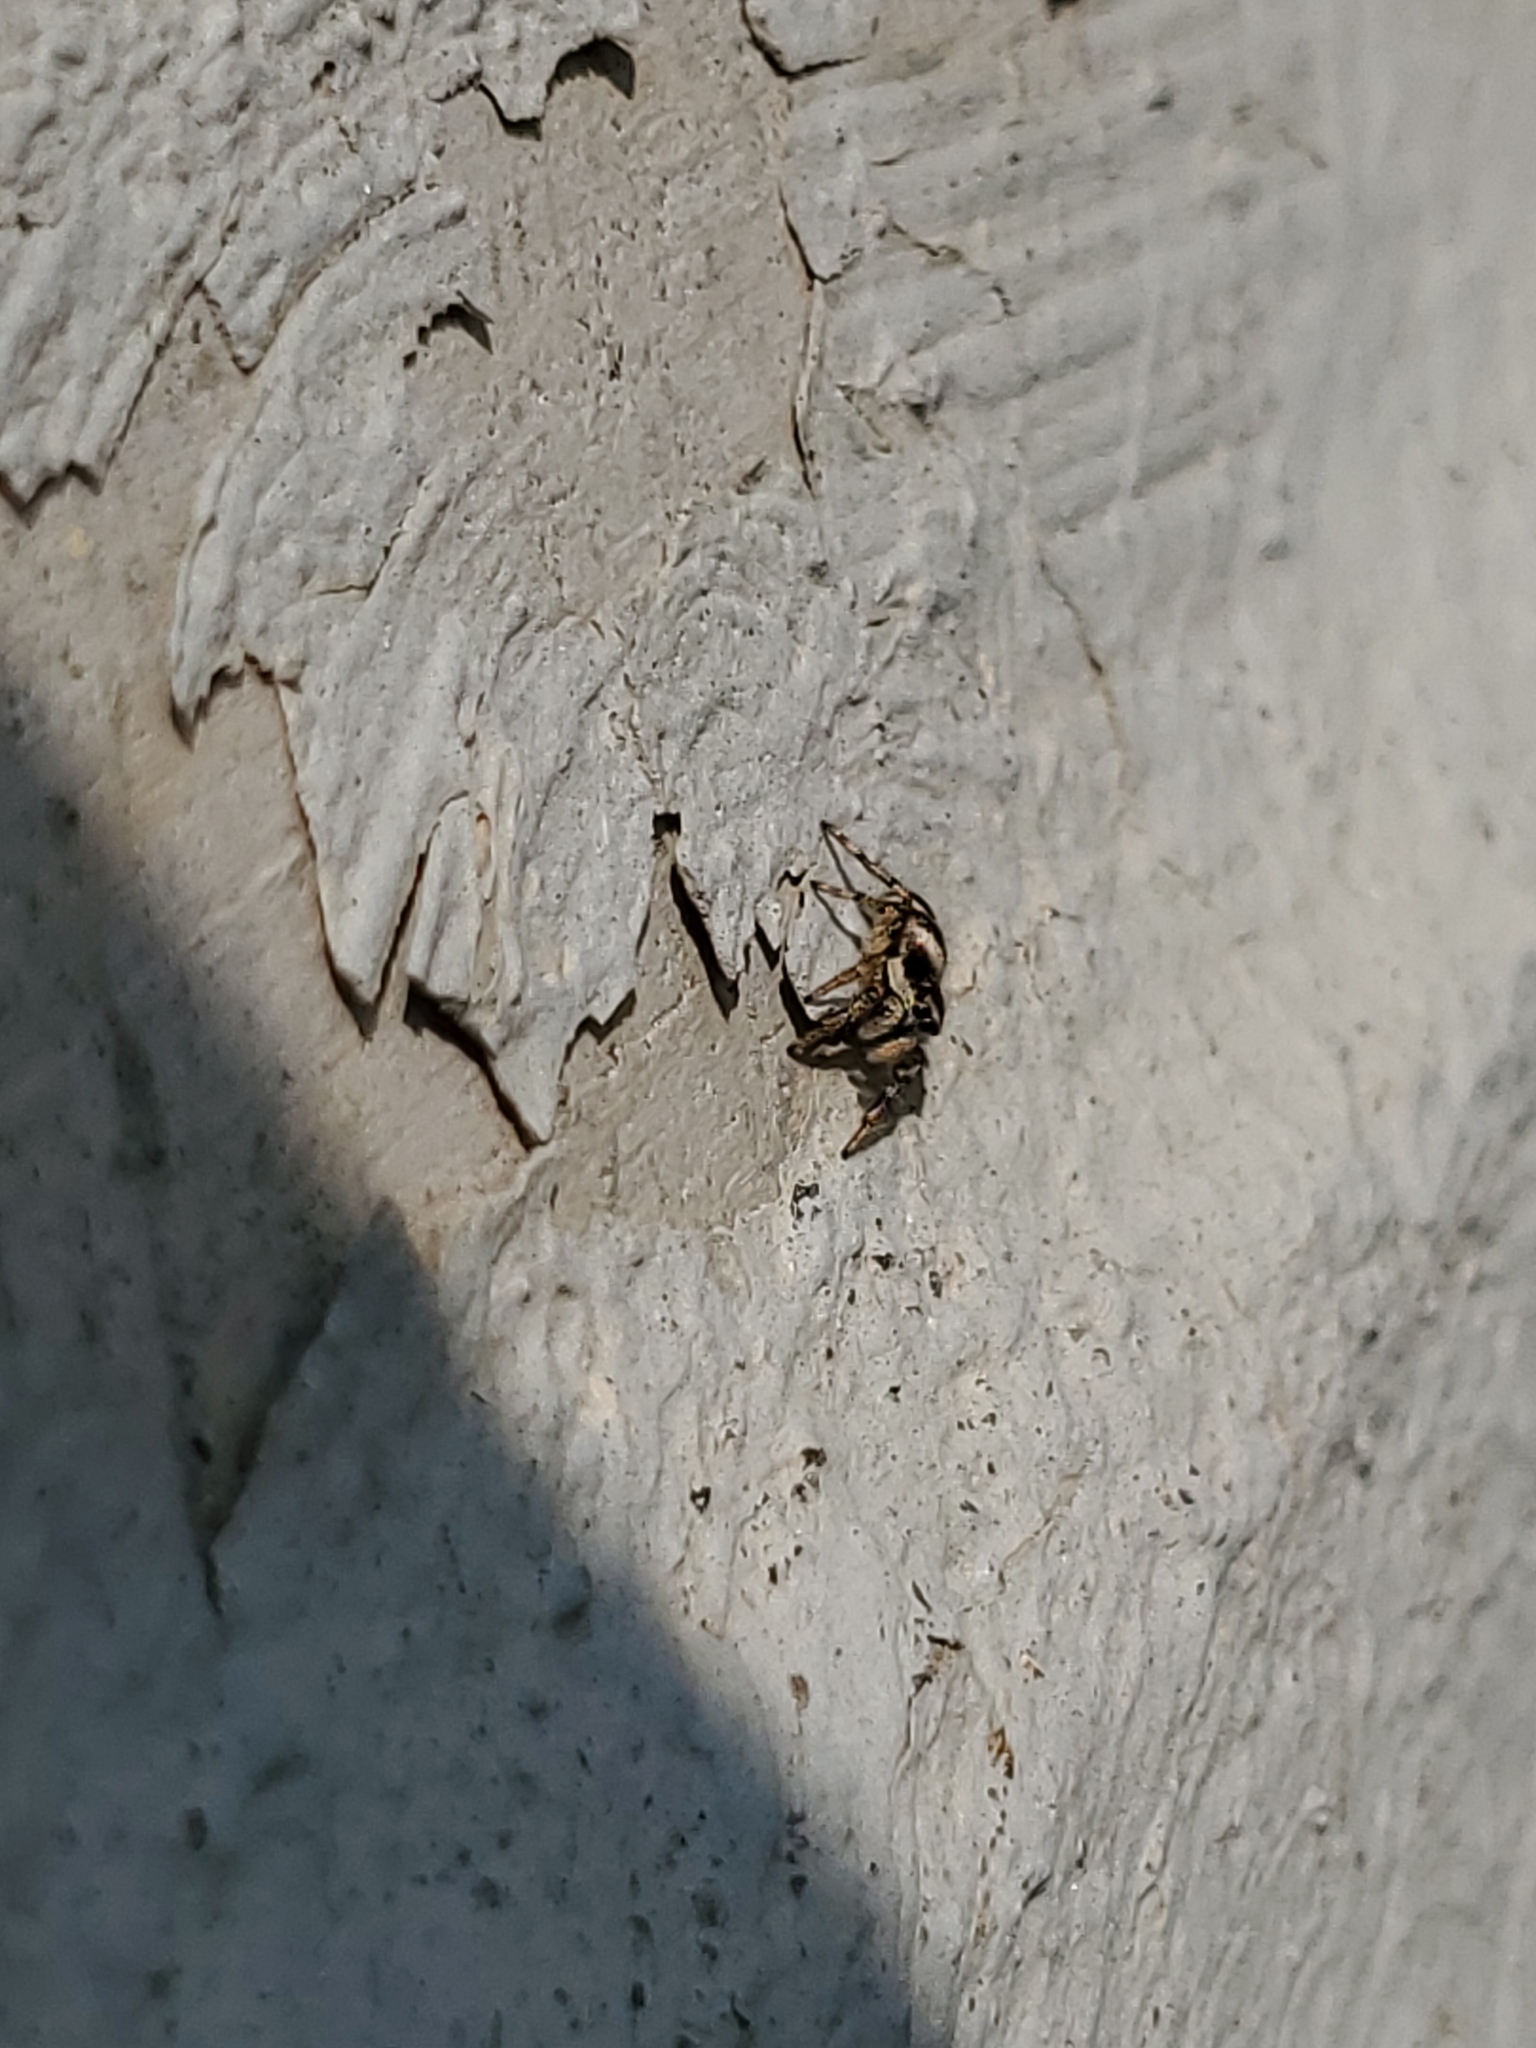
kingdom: Animalia
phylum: Arthropoda
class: Arachnida
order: Araneae
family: Salticidae
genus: Salticus
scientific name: Salticus scenicus
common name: Zebra jumper
